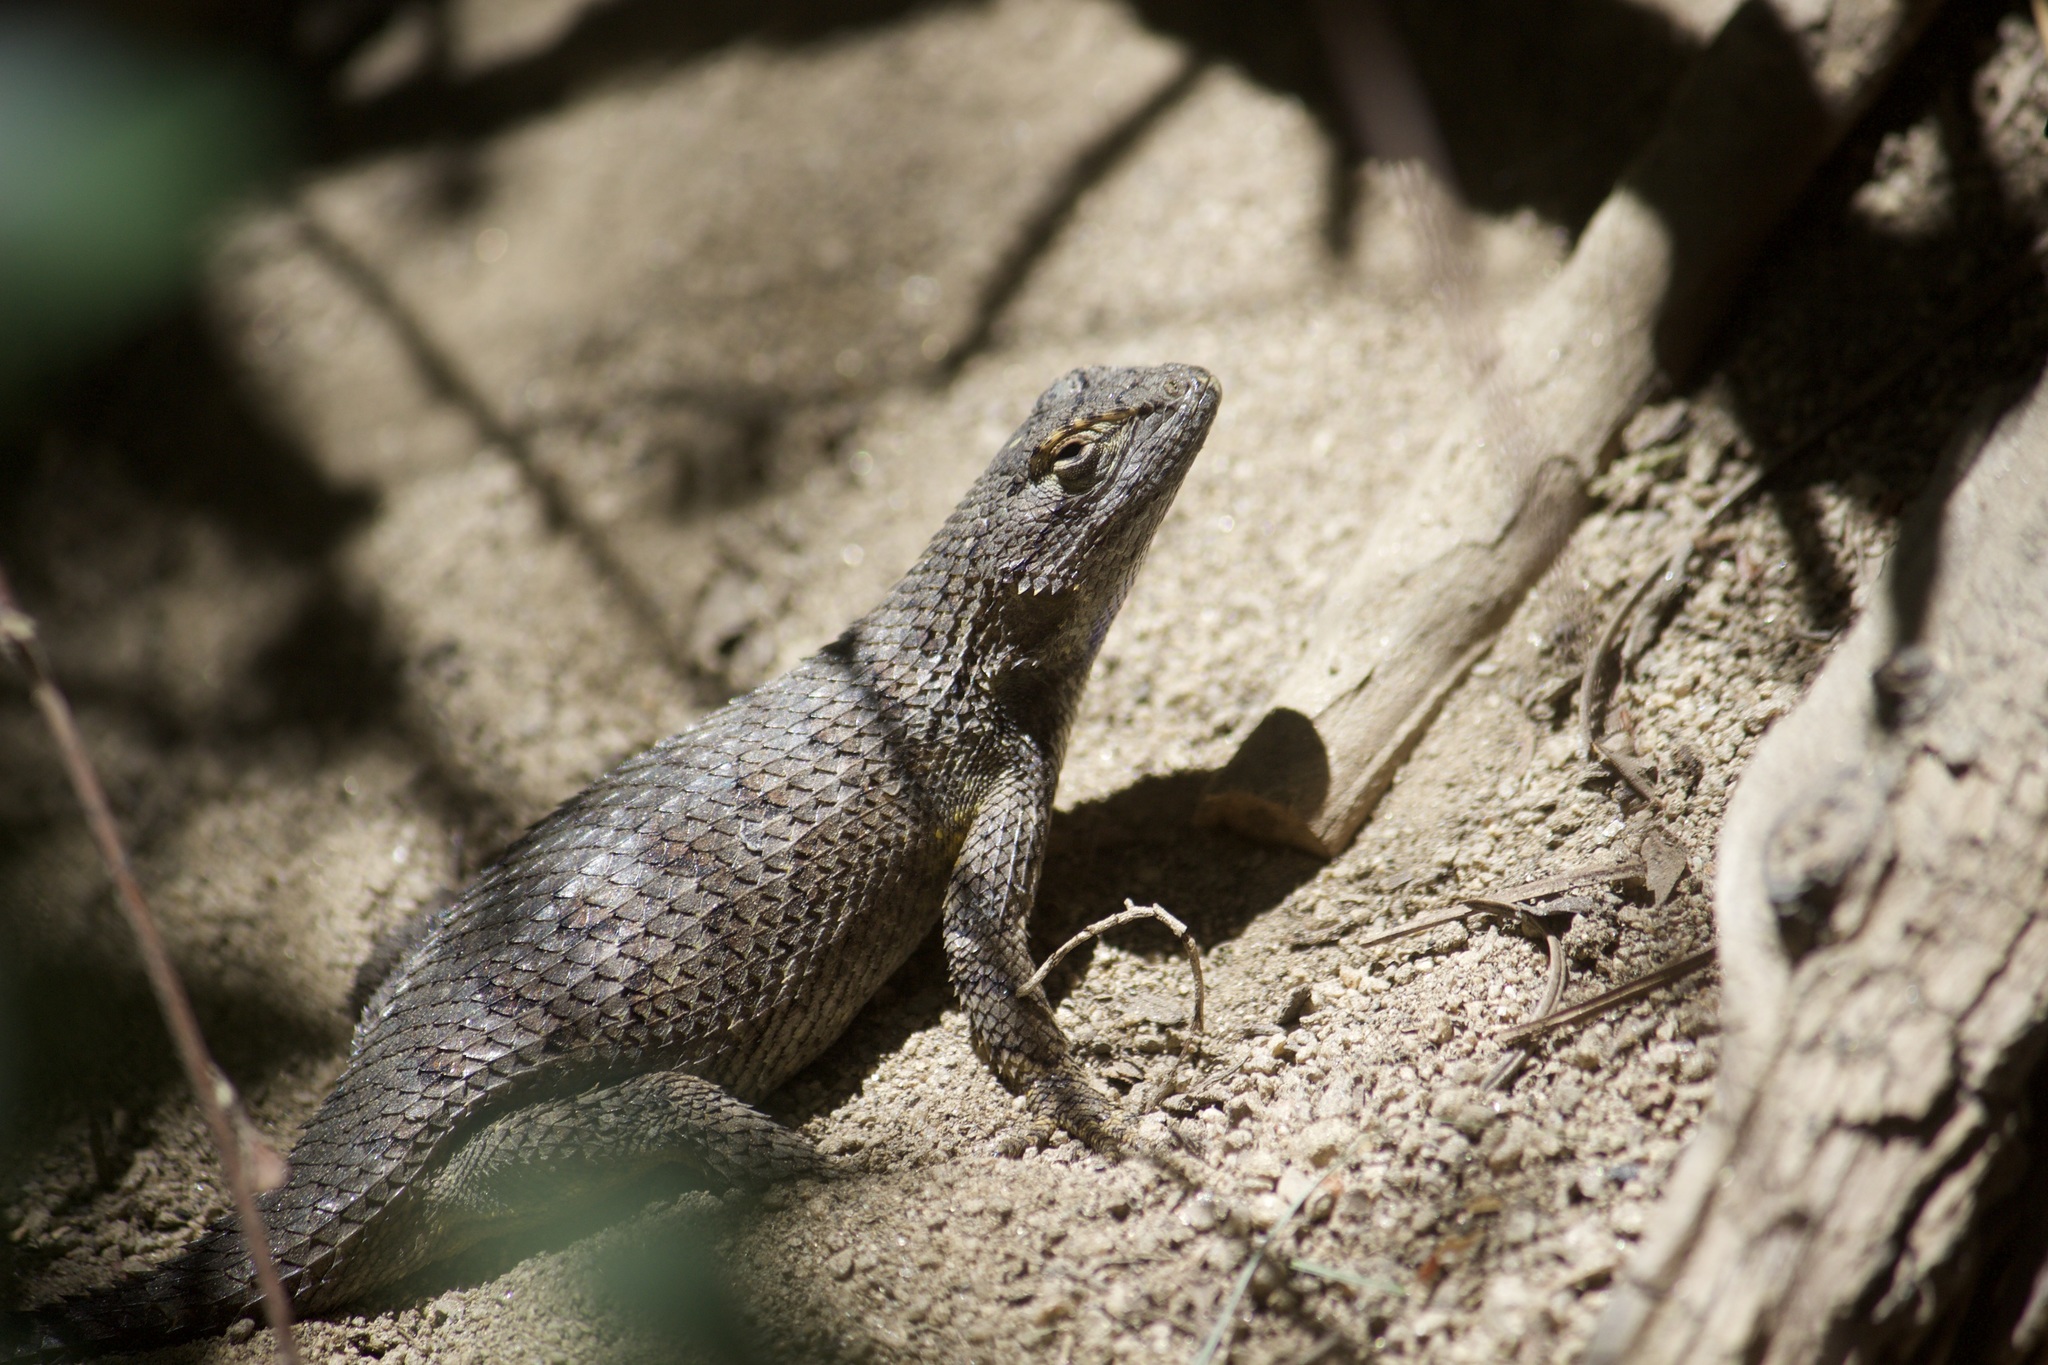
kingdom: Animalia
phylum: Chordata
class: Squamata
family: Phrynosomatidae
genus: Sceloporus
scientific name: Sceloporus occidentalis
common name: Western fence lizard
